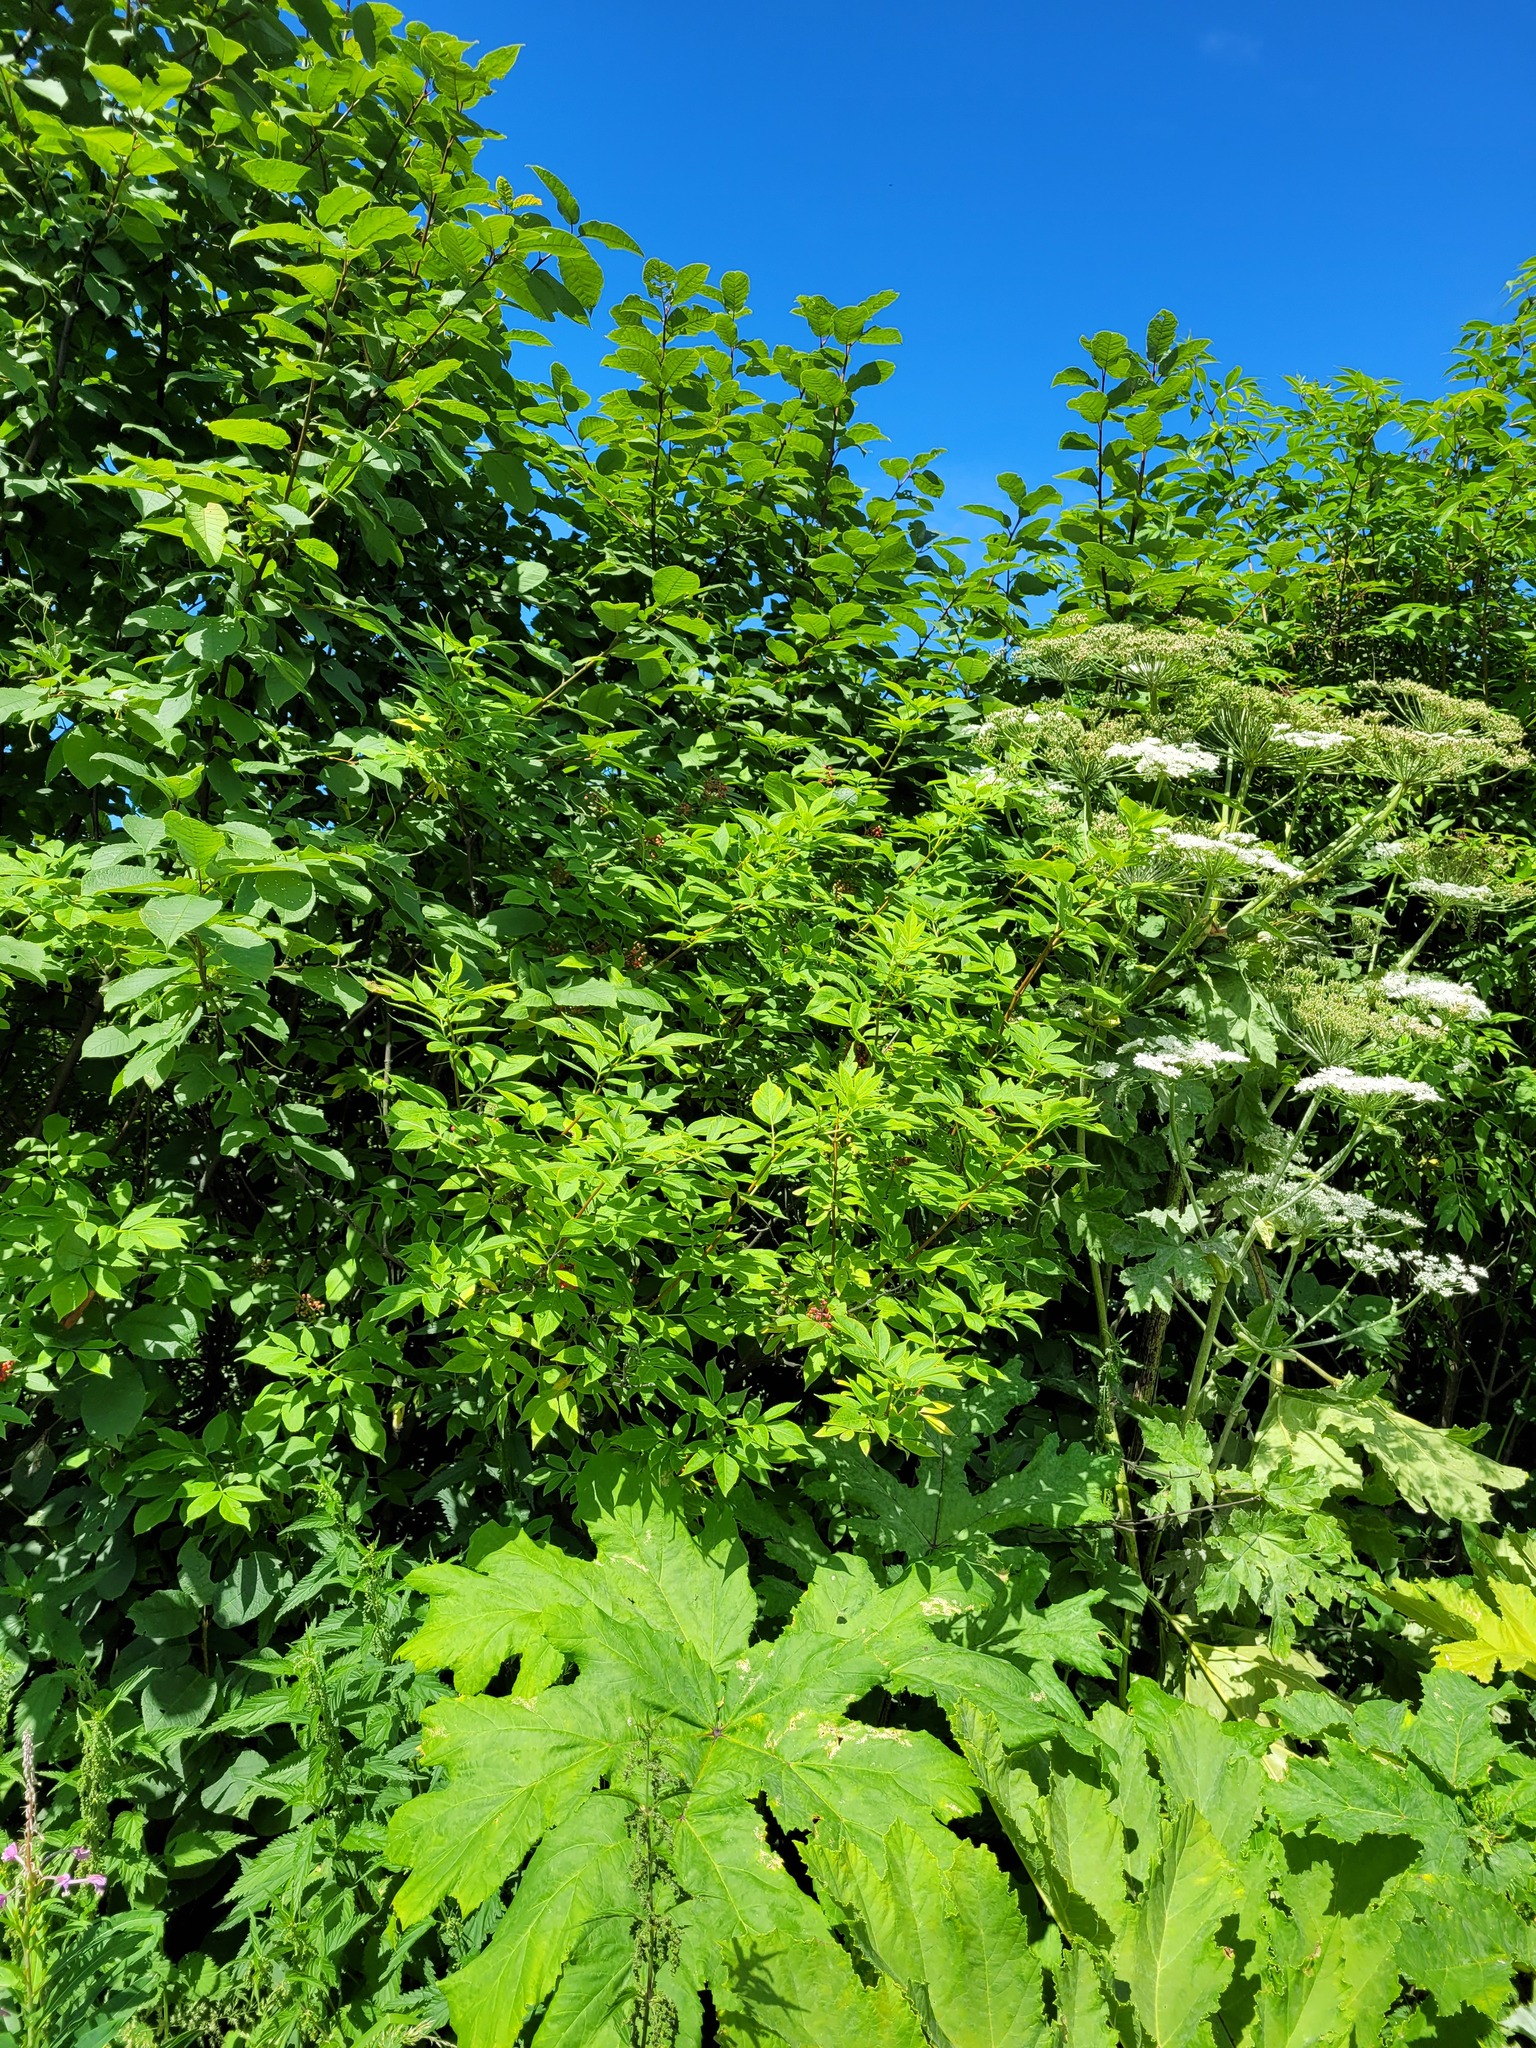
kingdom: Plantae
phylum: Tracheophyta
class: Magnoliopsida
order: Dipsacales
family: Viburnaceae
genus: Sambucus
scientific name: Sambucus racemosa
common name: Red-berried elder
